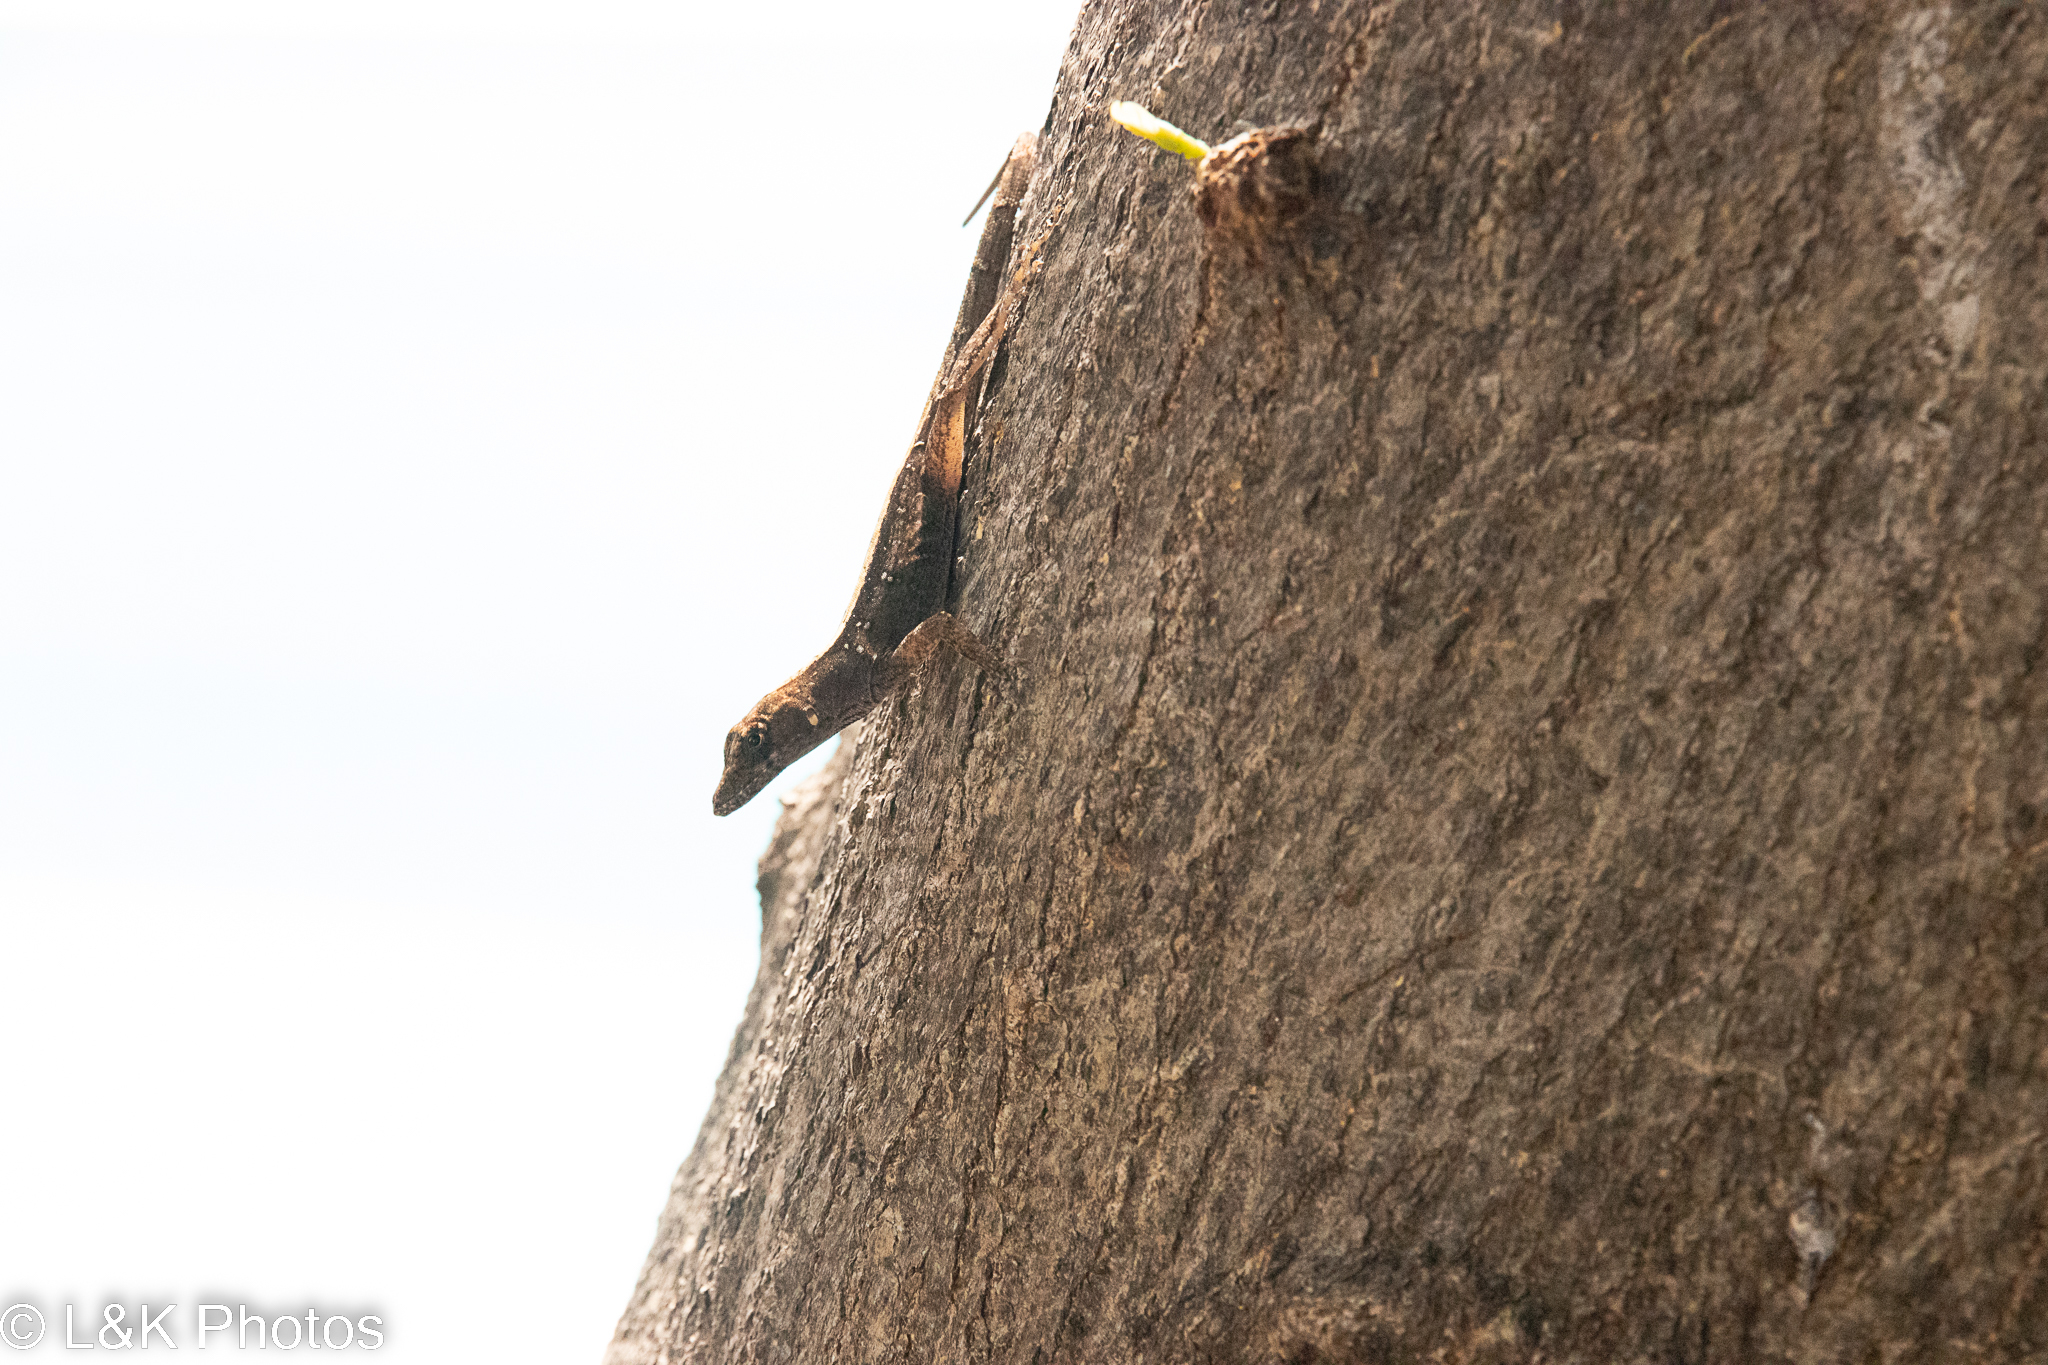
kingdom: Animalia
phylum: Chordata
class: Squamata
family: Dactyloidae
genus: Anolis
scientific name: Anolis sagrei
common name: Brown anole
